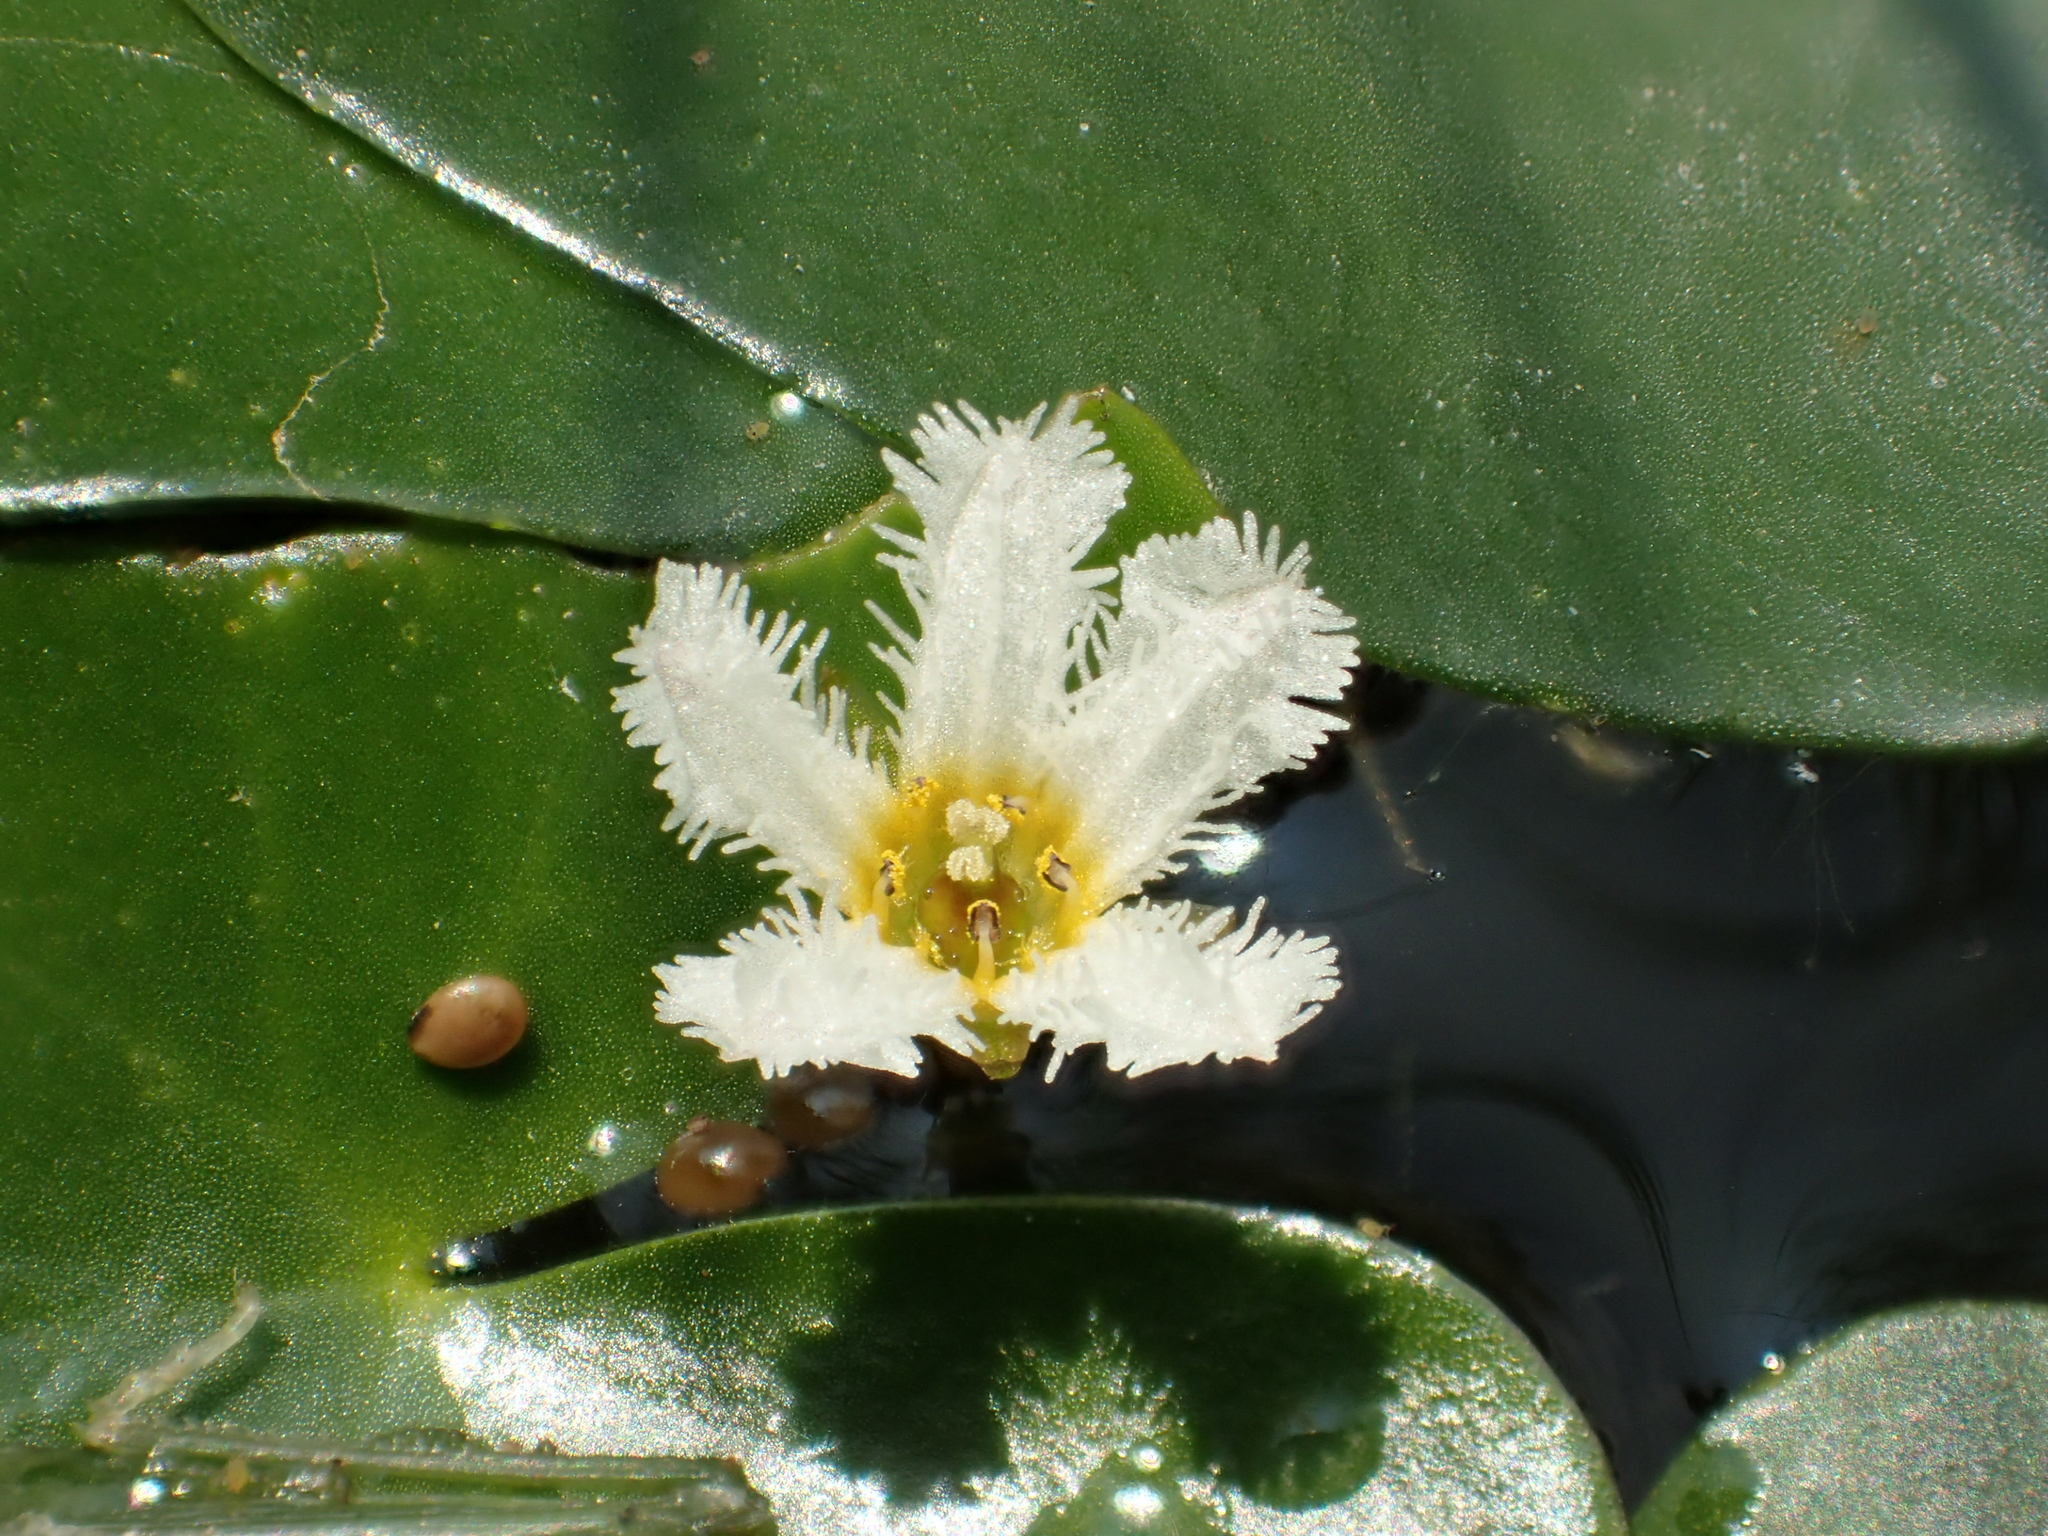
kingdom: Plantae
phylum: Tracheophyta
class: Magnoliopsida
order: Asterales
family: Menyanthaceae
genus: Nymphoides
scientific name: Nymphoides coreana
